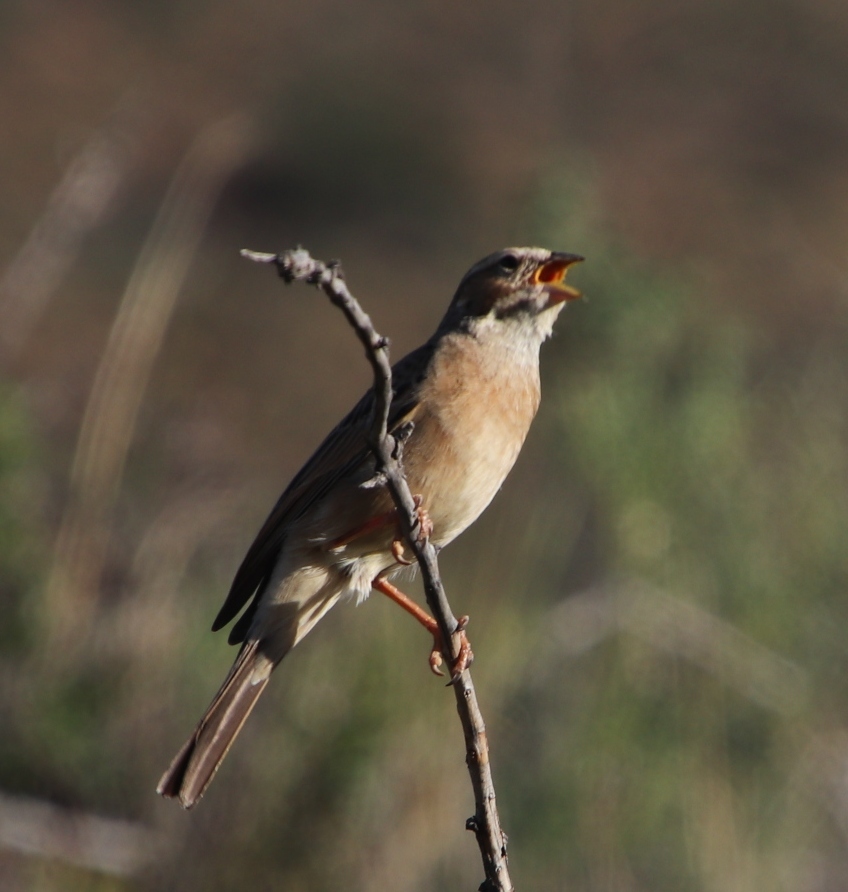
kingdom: Animalia
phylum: Chordata
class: Aves
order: Passeriformes
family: Emberizidae
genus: Emberiza
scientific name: Emberiza impetuani
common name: Lark-like bunting
